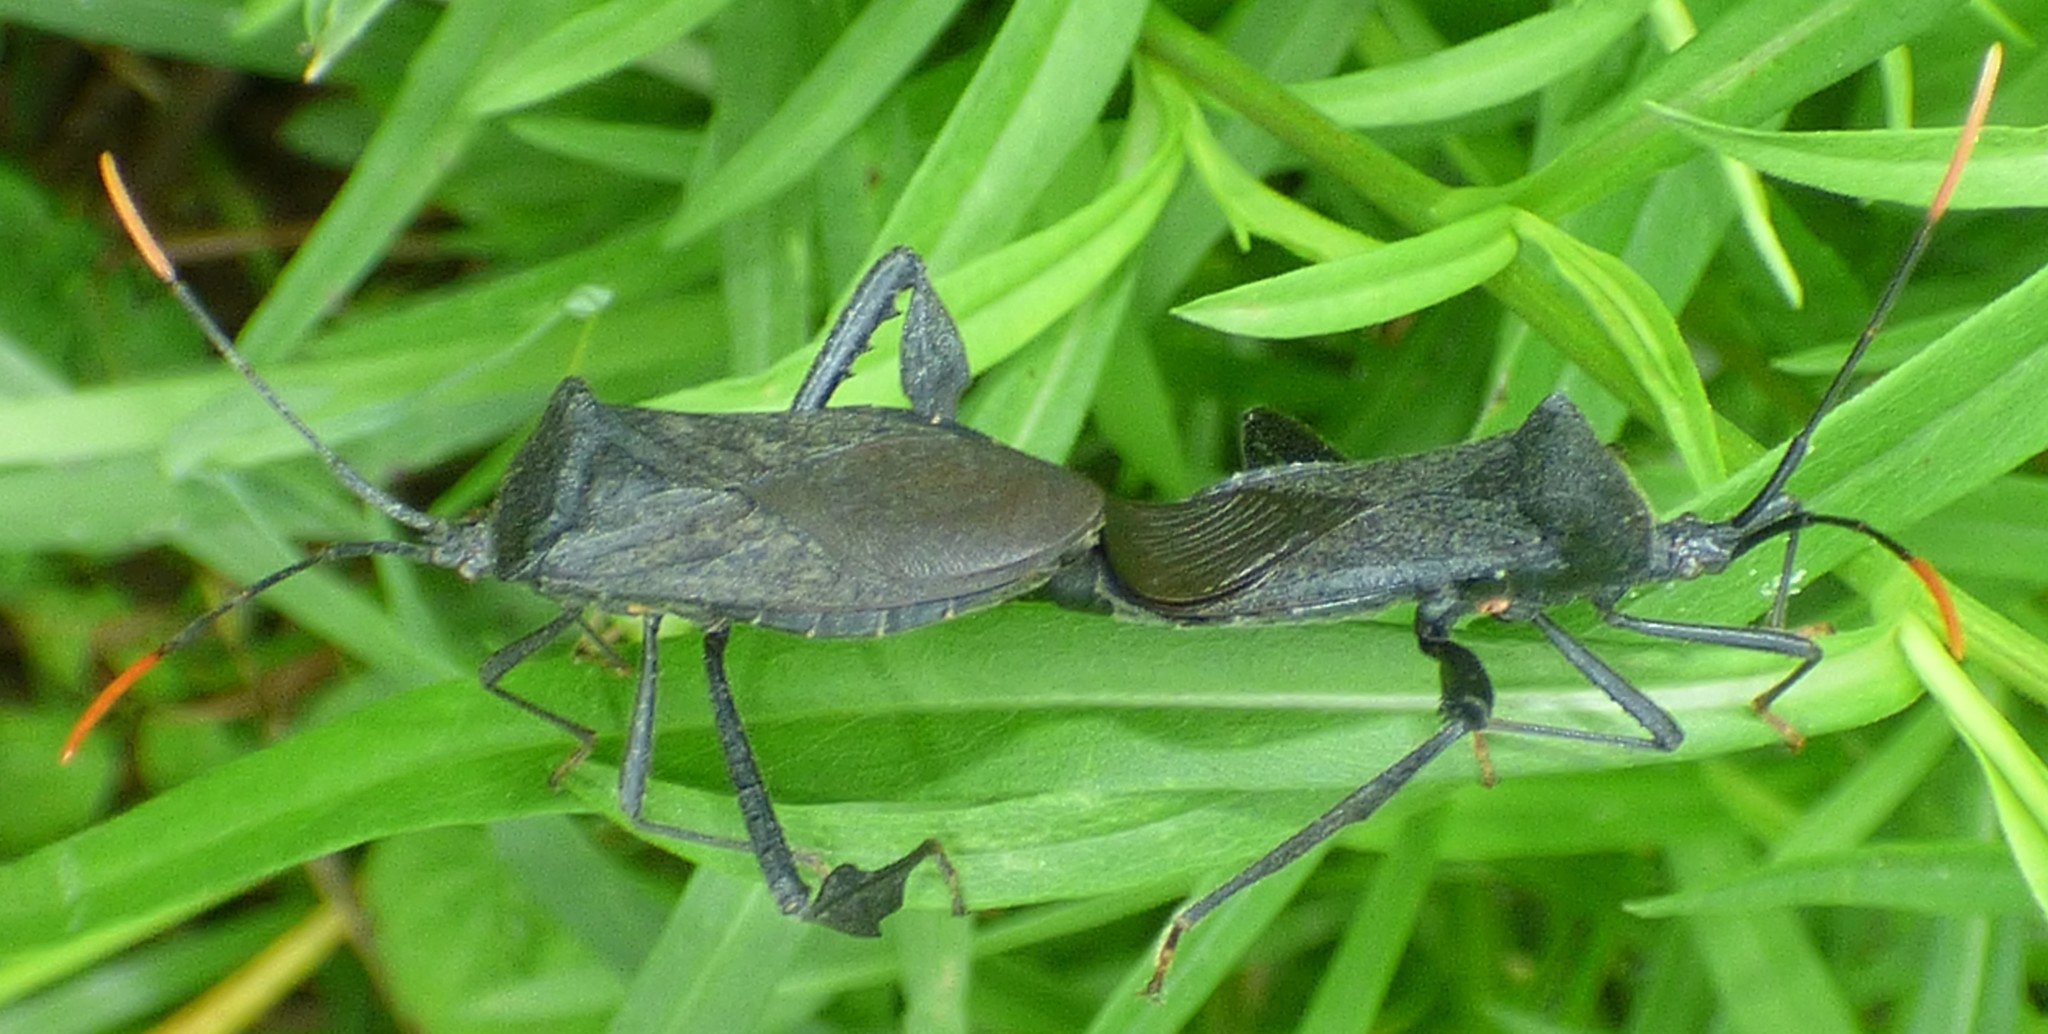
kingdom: Animalia
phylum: Arthropoda
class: Insecta
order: Hemiptera
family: Coreidae
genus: Acanthocephala
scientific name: Acanthocephala terminalis
